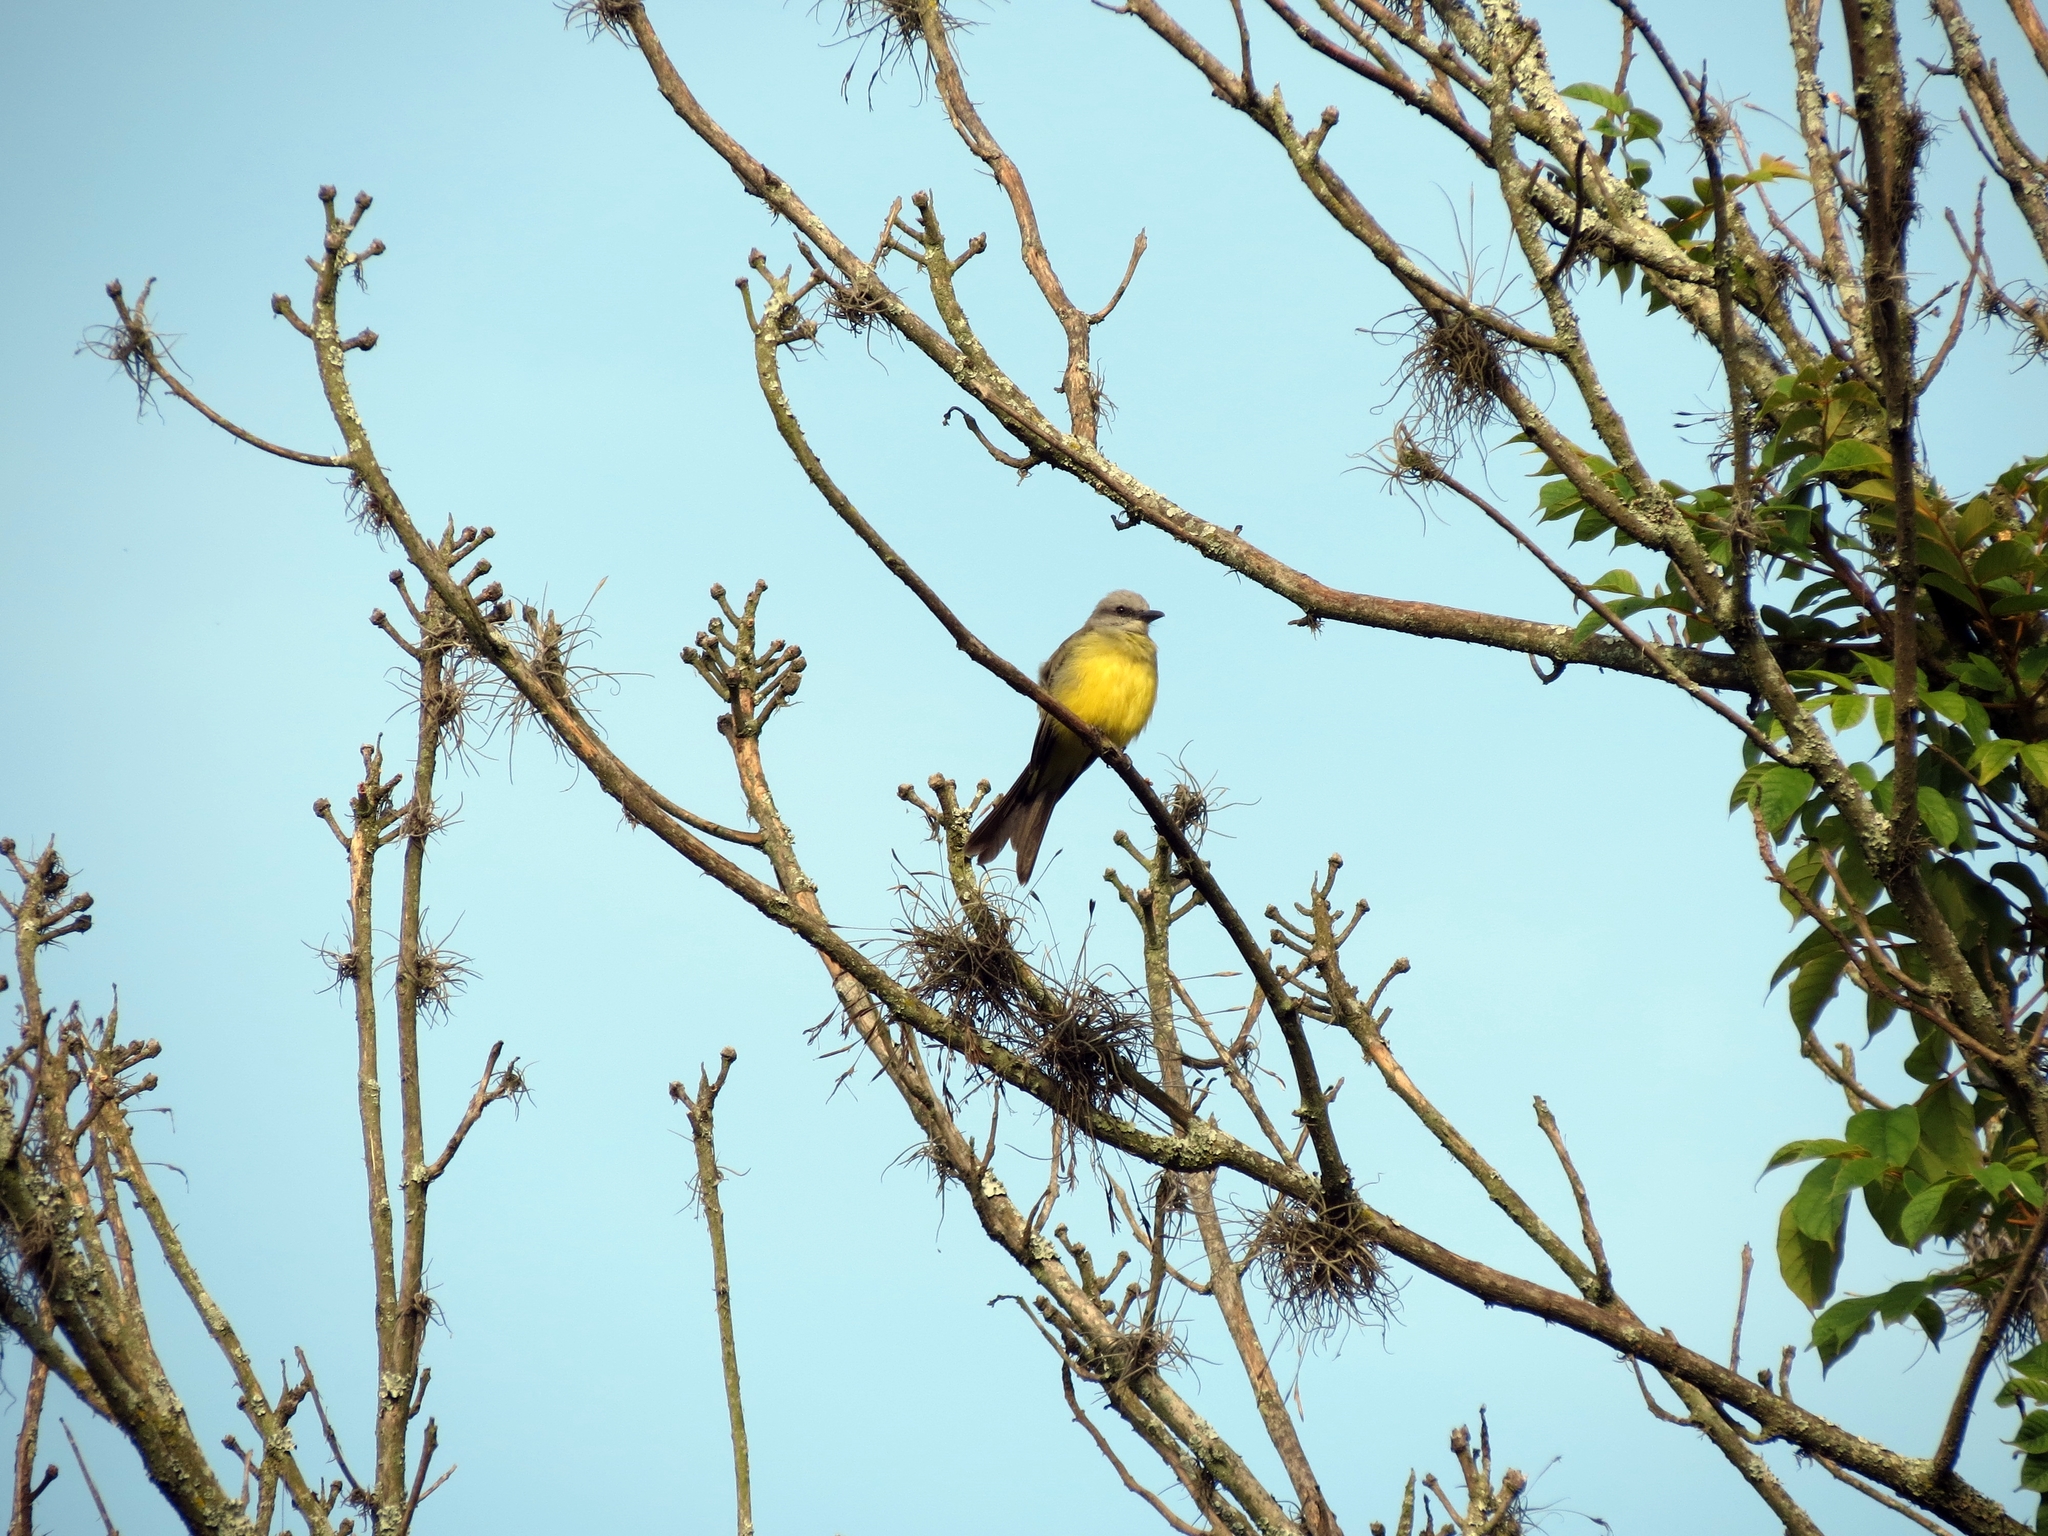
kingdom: Animalia
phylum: Chordata
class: Aves
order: Passeriformes
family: Tyrannidae
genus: Tyrannus
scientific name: Tyrannus melancholicus
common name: Tropical kingbird
